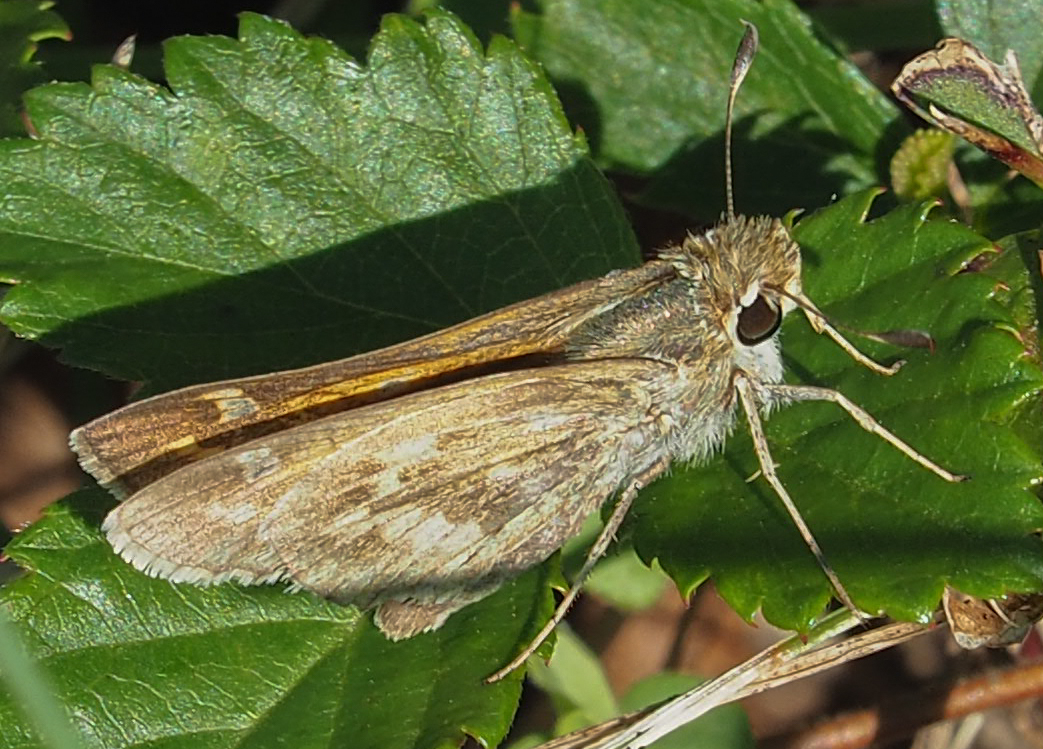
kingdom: Animalia
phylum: Arthropoda
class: Insecta
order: Lepidoptera
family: Hesperiidae
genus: Atalopedes
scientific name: Atalopedes
